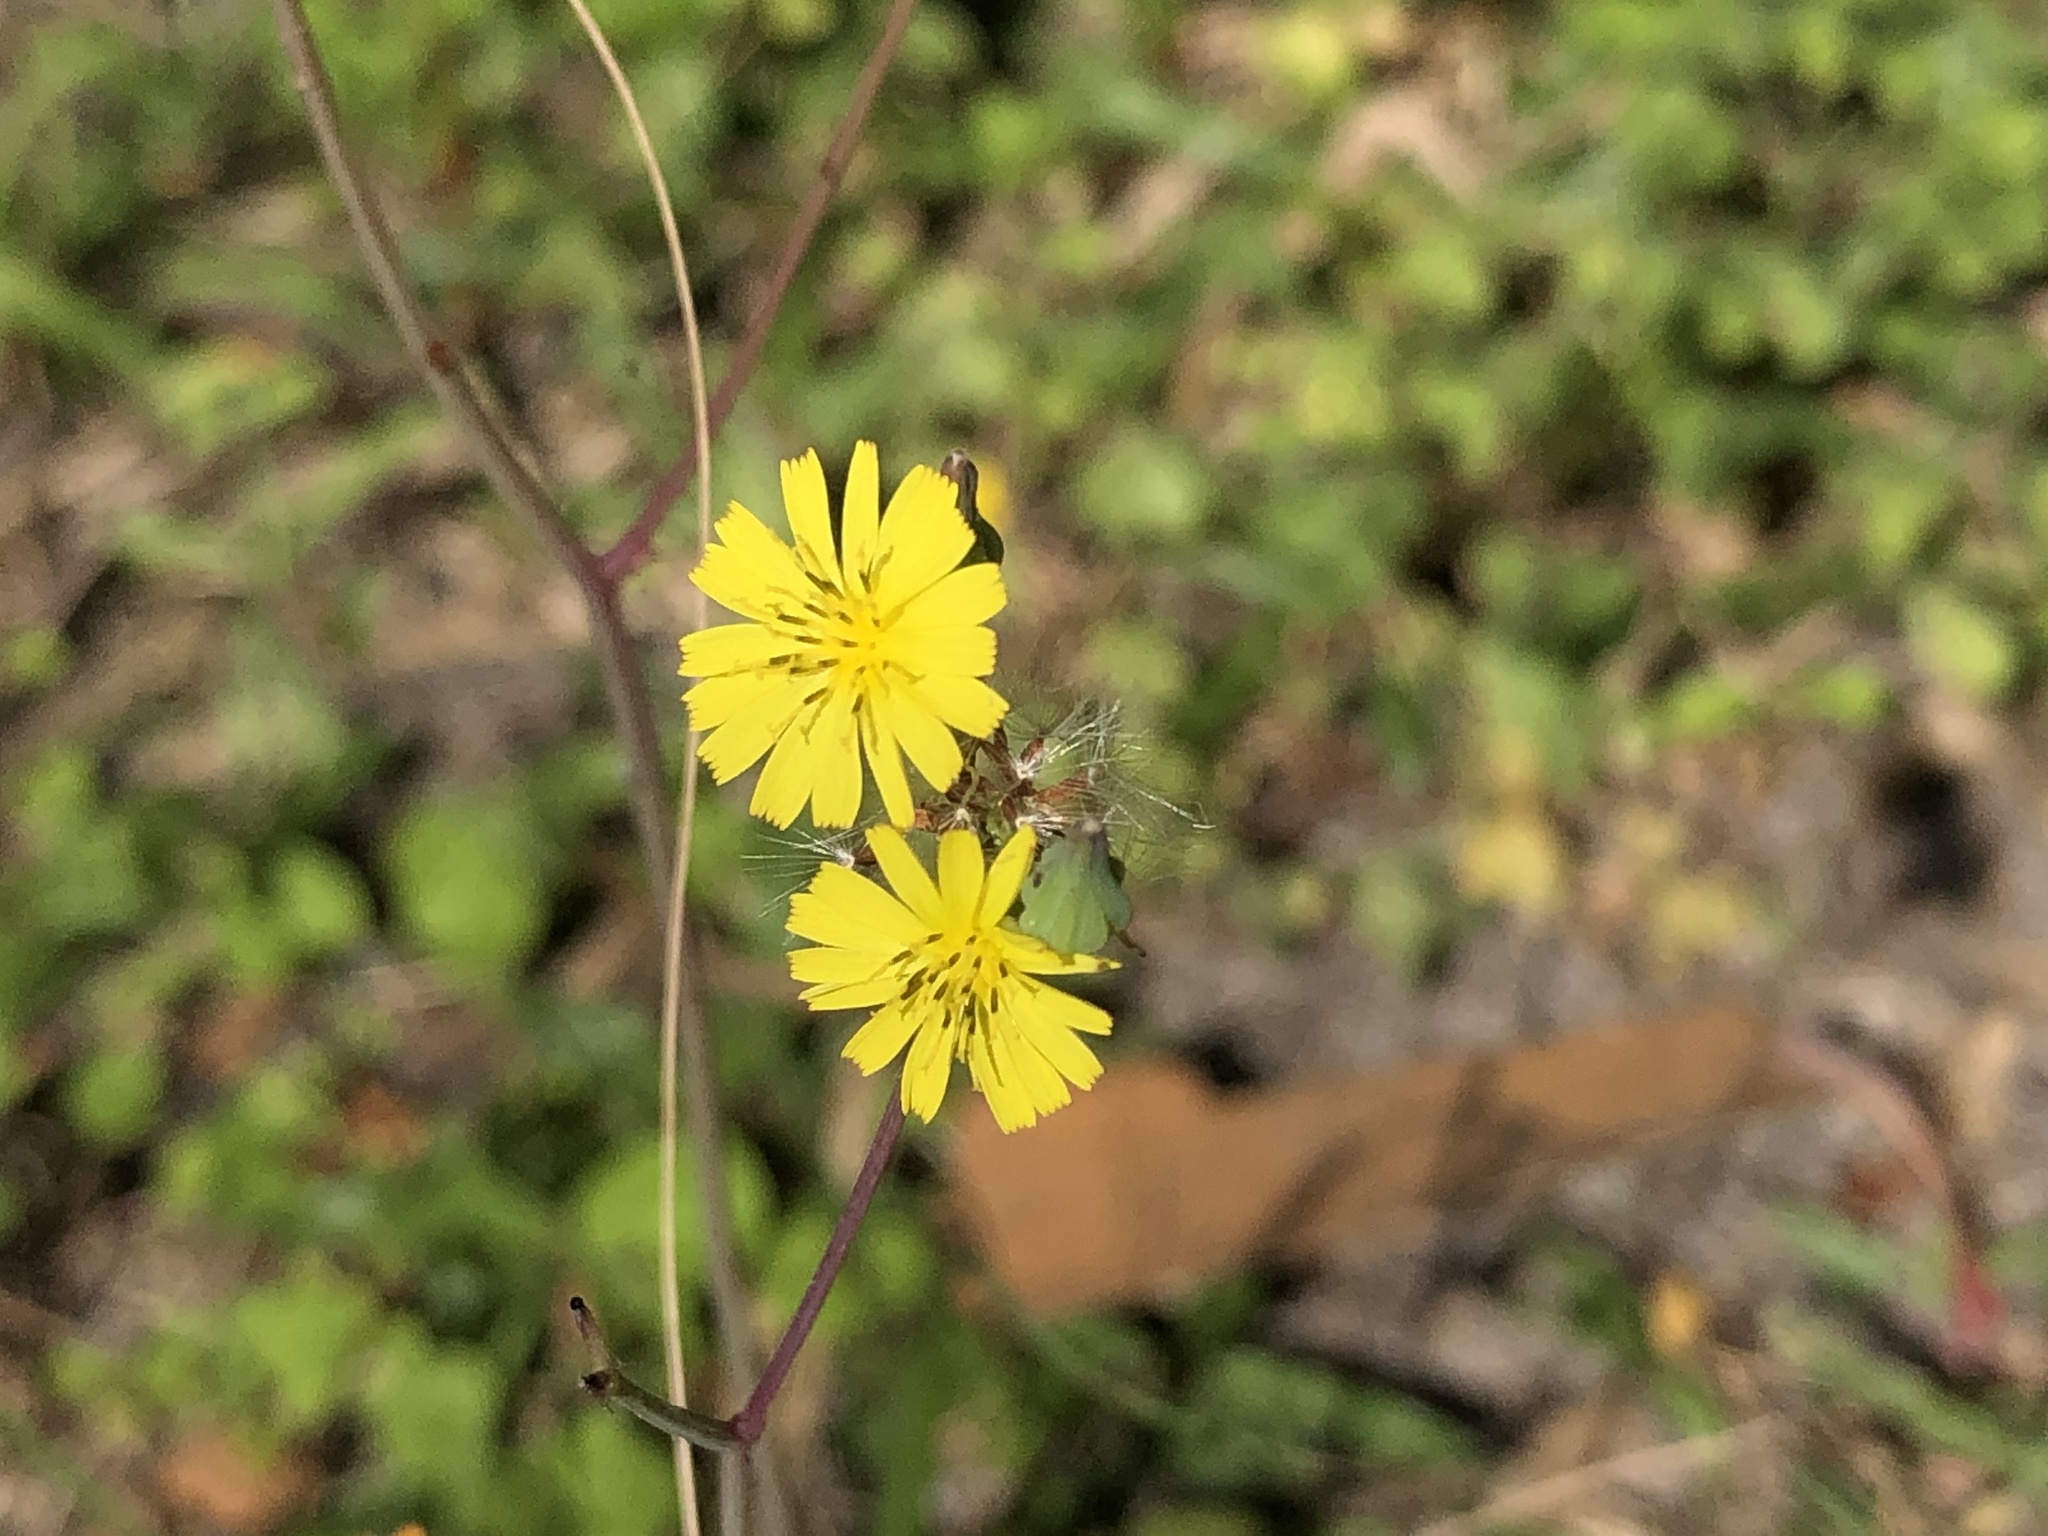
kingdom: Plantae
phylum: Tracheophyta
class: Magnoliopsida
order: Asterales
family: Asteraceae
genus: Youngia
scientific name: Youngia japonica
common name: Oriental false hawksbeard
